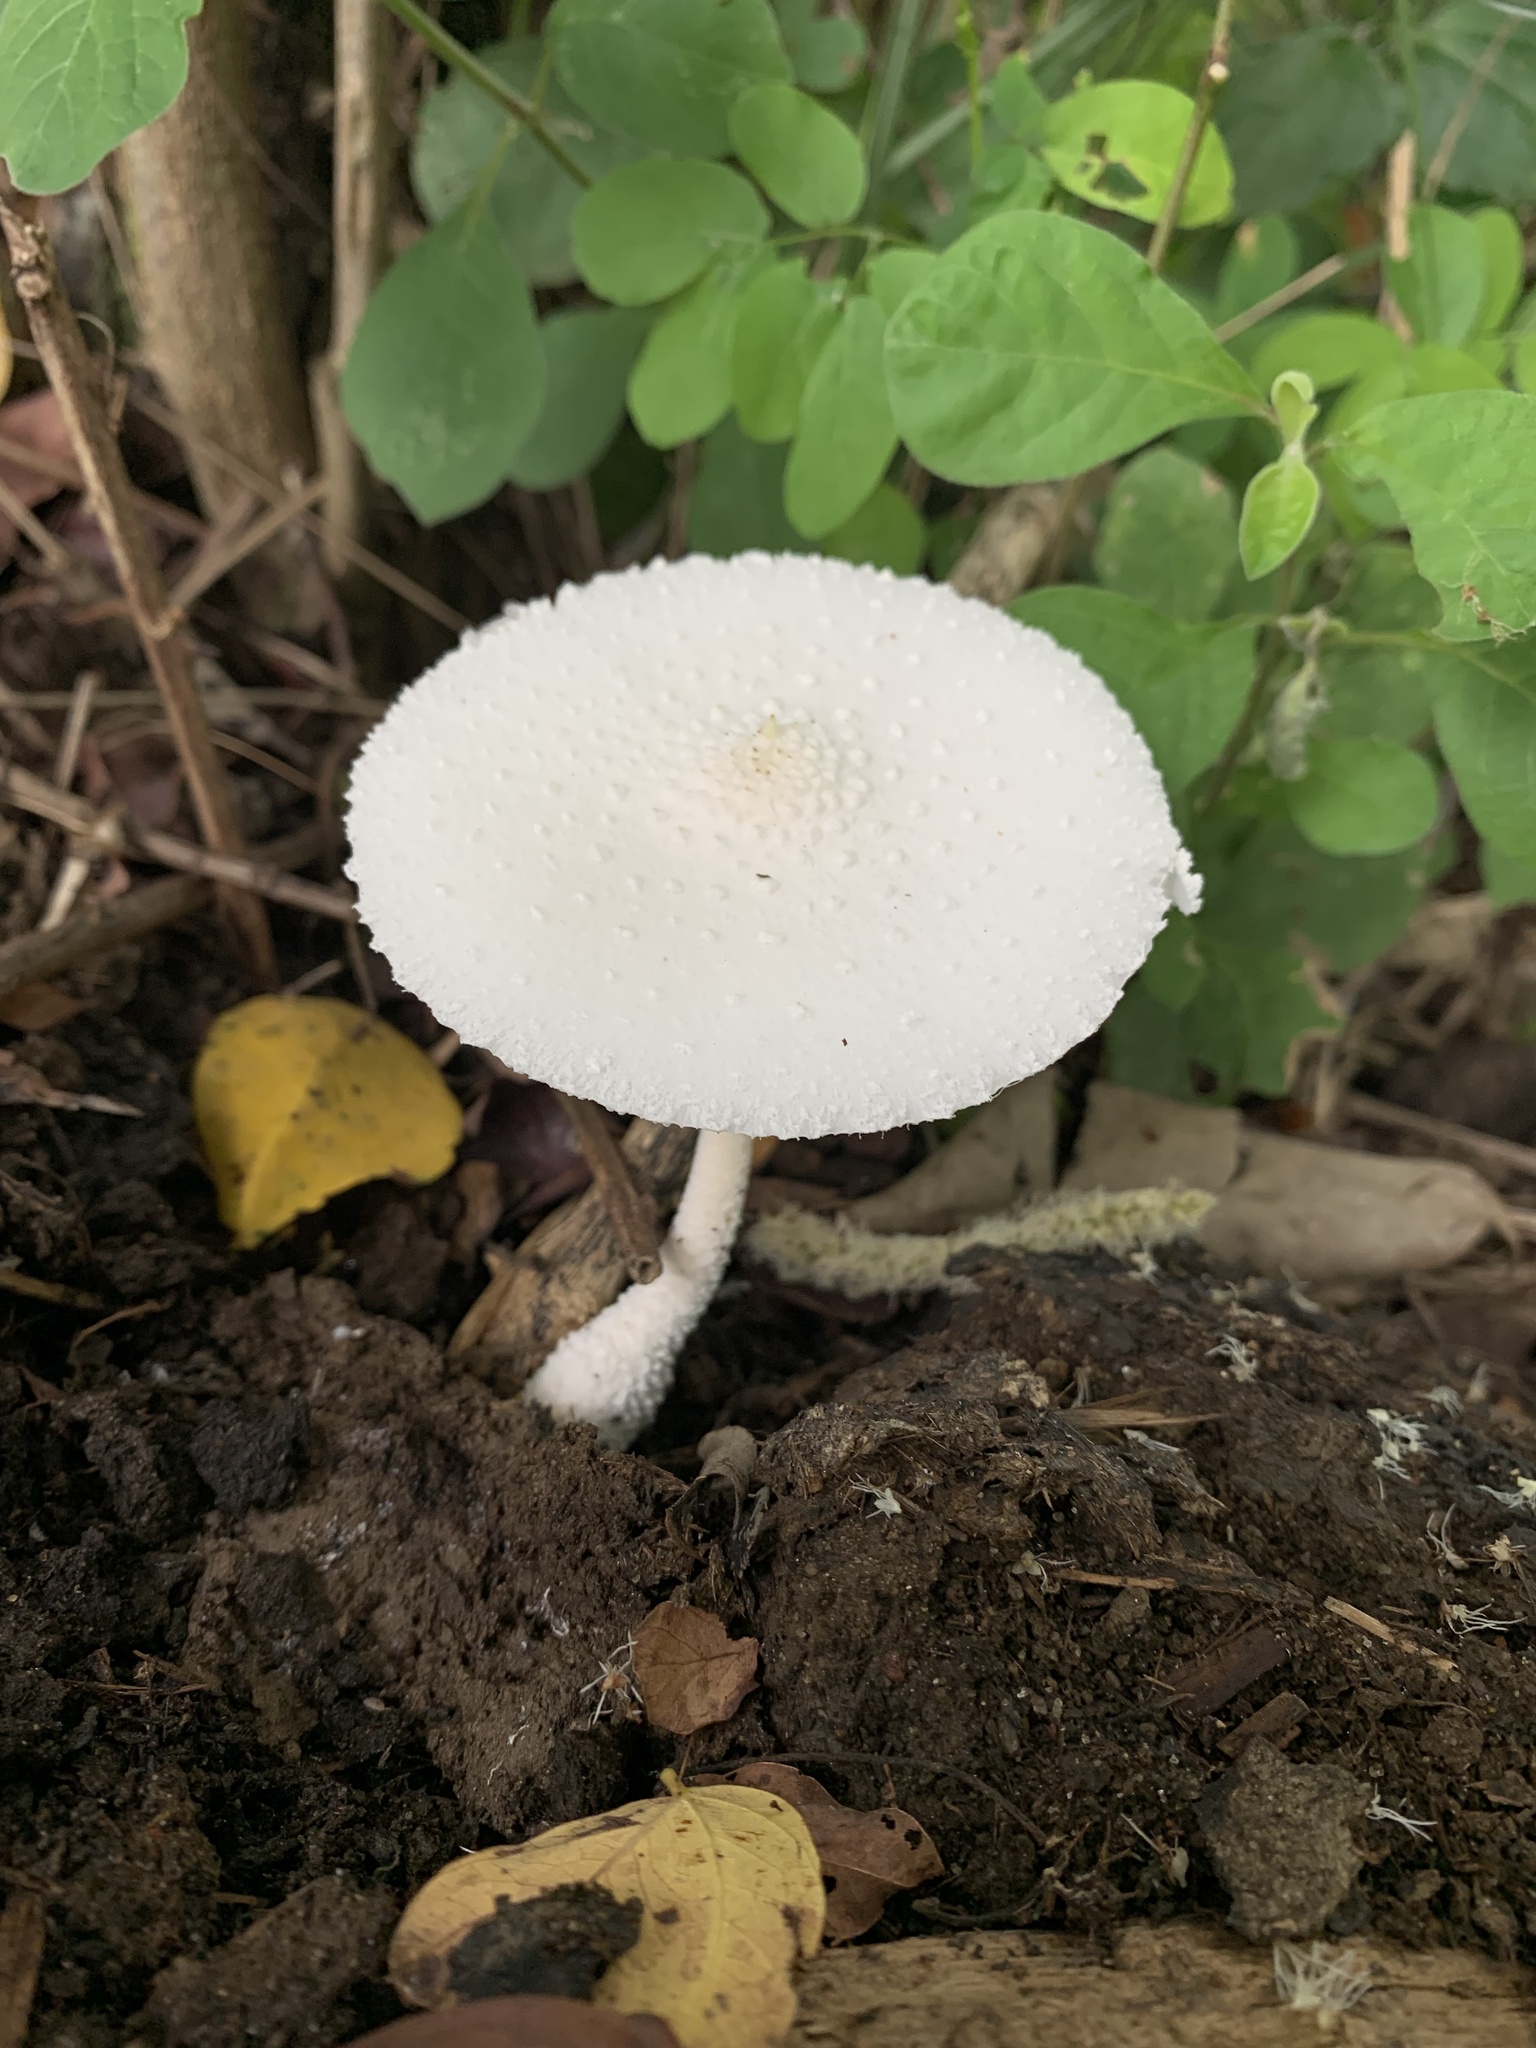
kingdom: Fungi
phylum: Basidiomycota
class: Agaricomycetes
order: Agaricales
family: Agaricaceae
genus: Leucocoprinus
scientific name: Leucocoprinus cretaceus
